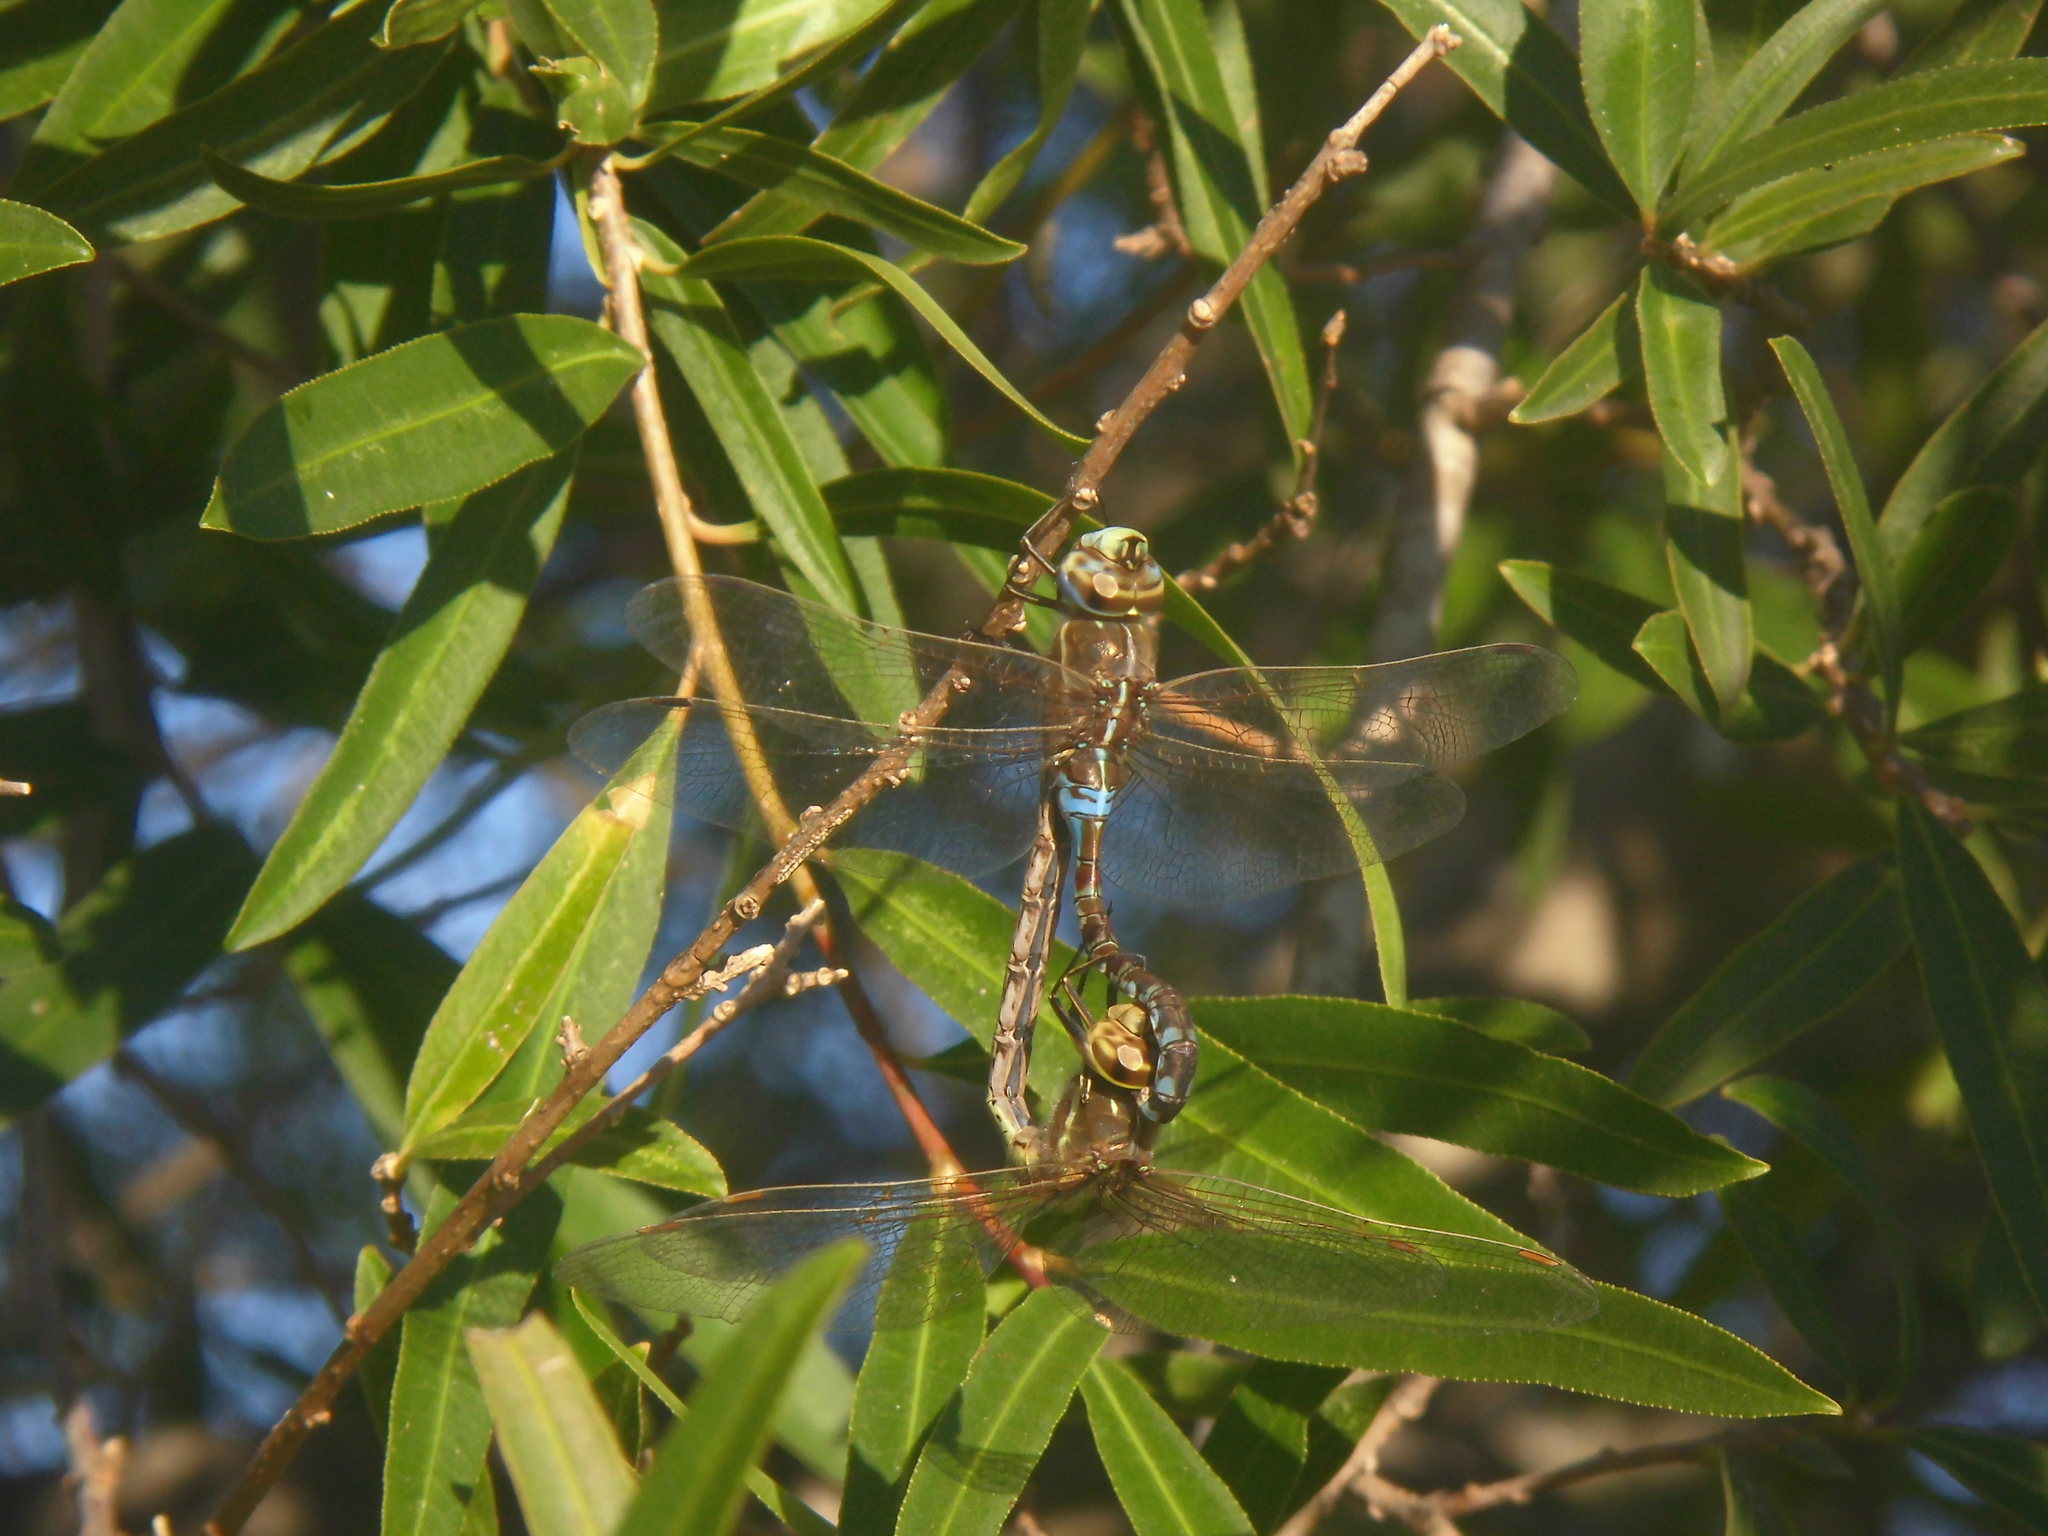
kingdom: Animalia
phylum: Arthropoda
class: Insecta
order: Odonata
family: Aeshnidae
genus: Rhionaeschna
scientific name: Rhionaeschna bonariensis
